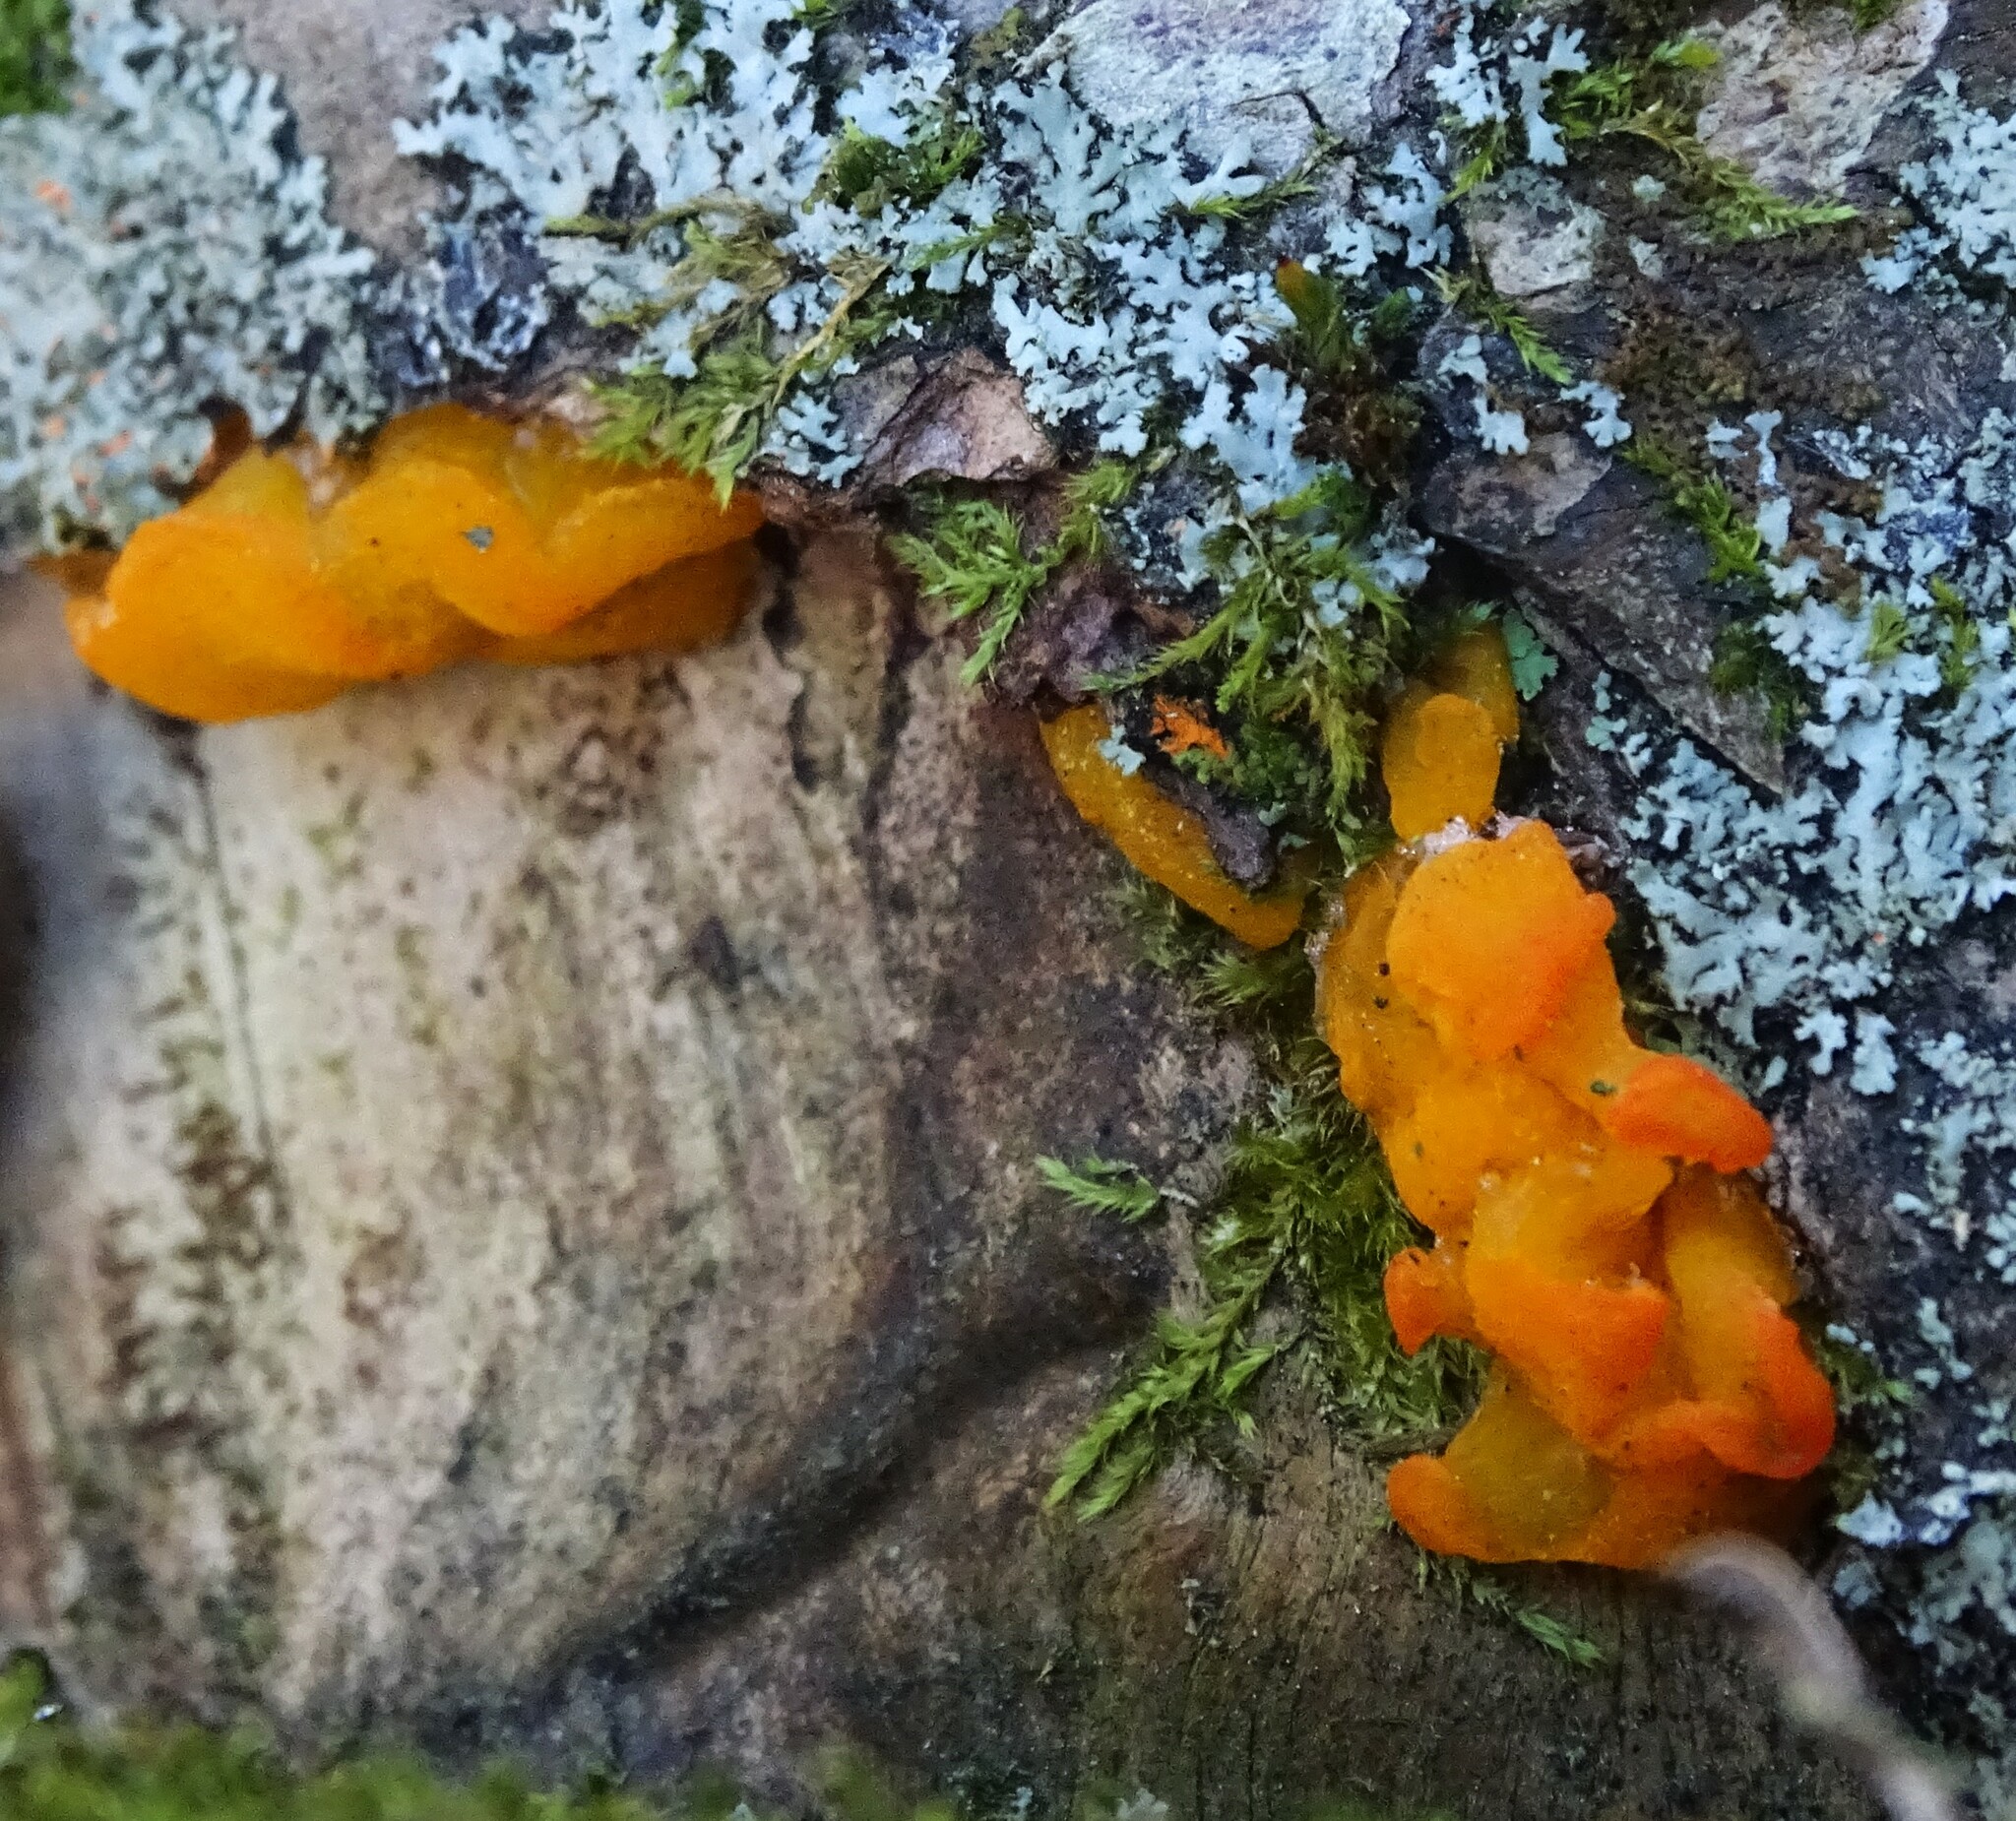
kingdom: Fungi
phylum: Basidiomycota
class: Dacrymycetes
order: Dacrymycetales
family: Dacrymycetaceae
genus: Dacrymyces
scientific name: Dacrymyces chrysospermus
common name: Orange jelly spot
